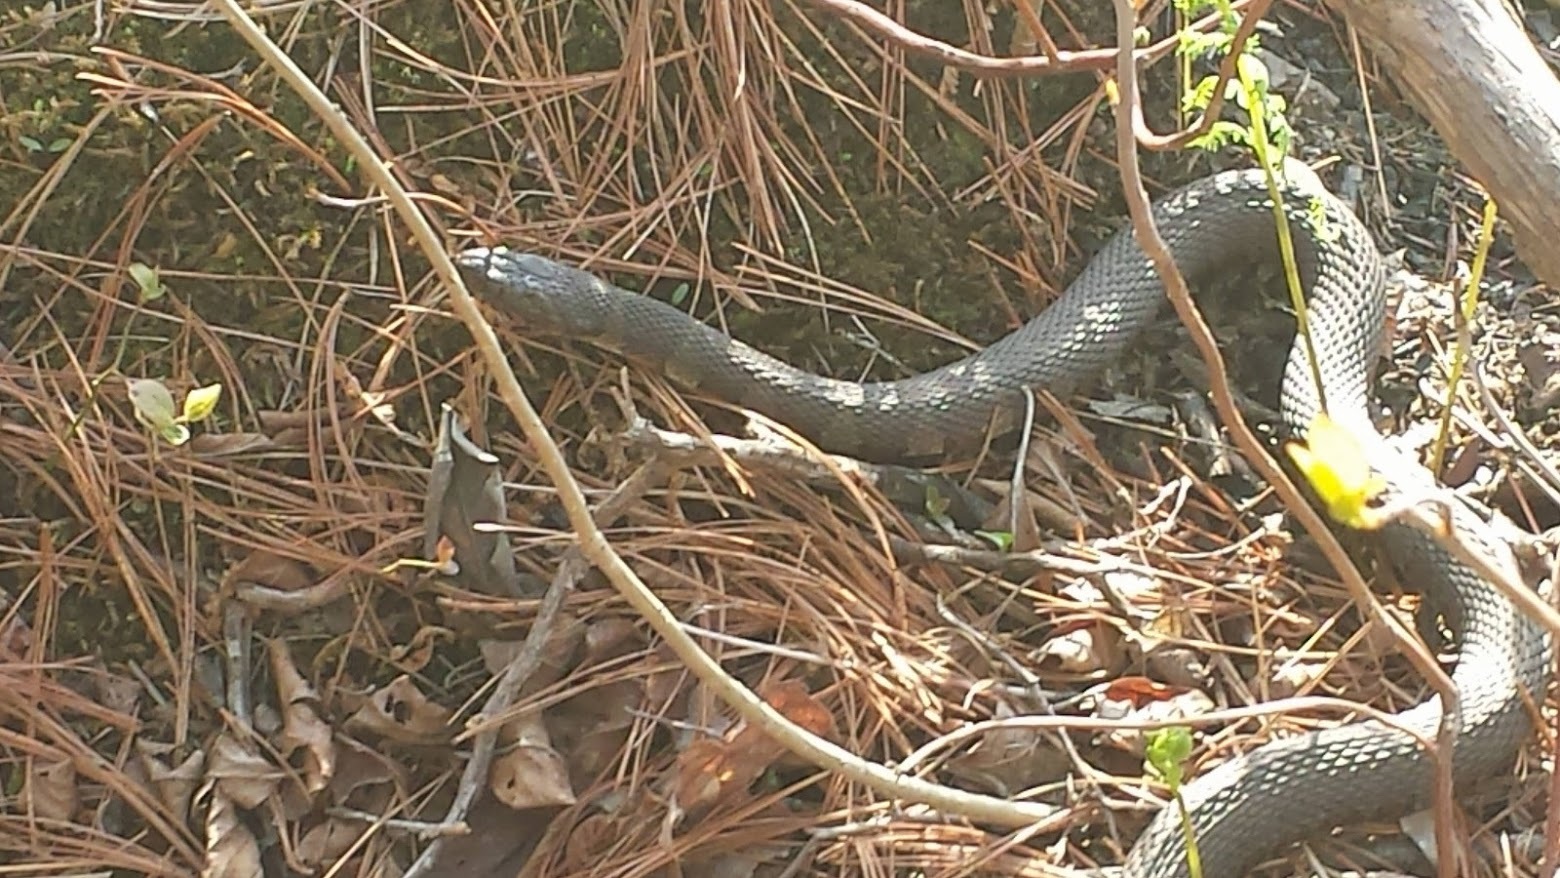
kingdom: Animalia
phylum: Chordata
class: Squamata
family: Colubridae
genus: Nerodia
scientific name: Nerodia sipedon
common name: Northern water snake
